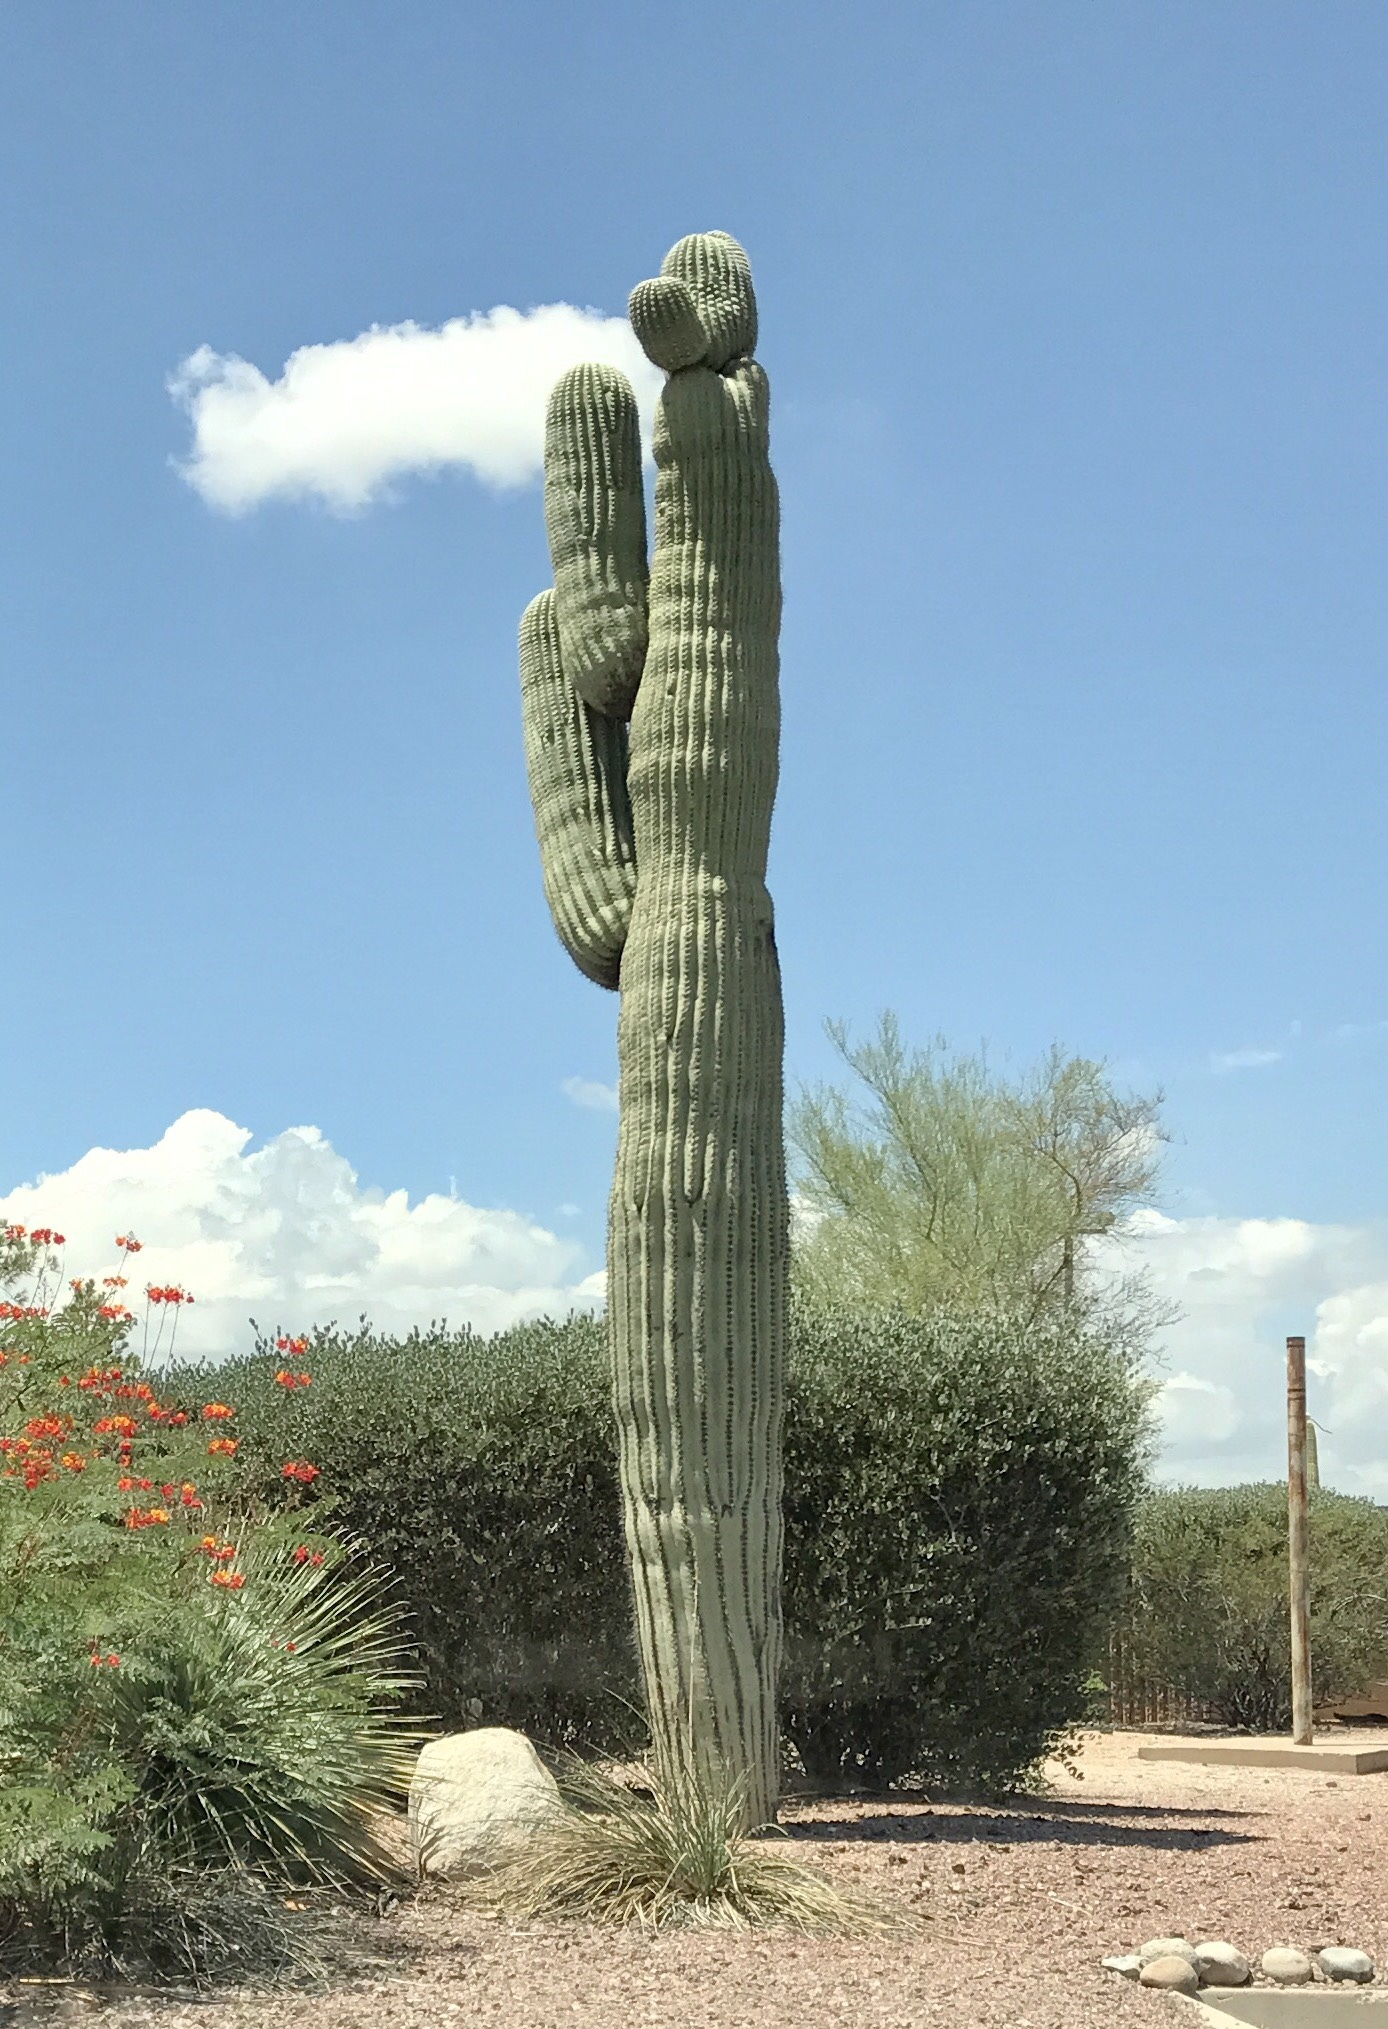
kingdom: Plantae
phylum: Tracheophyta
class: Magnoliopsida
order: Caryophyllales
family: Cactaceae
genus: Carnegiea
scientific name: Carnegiea gigantea
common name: Saguaro
